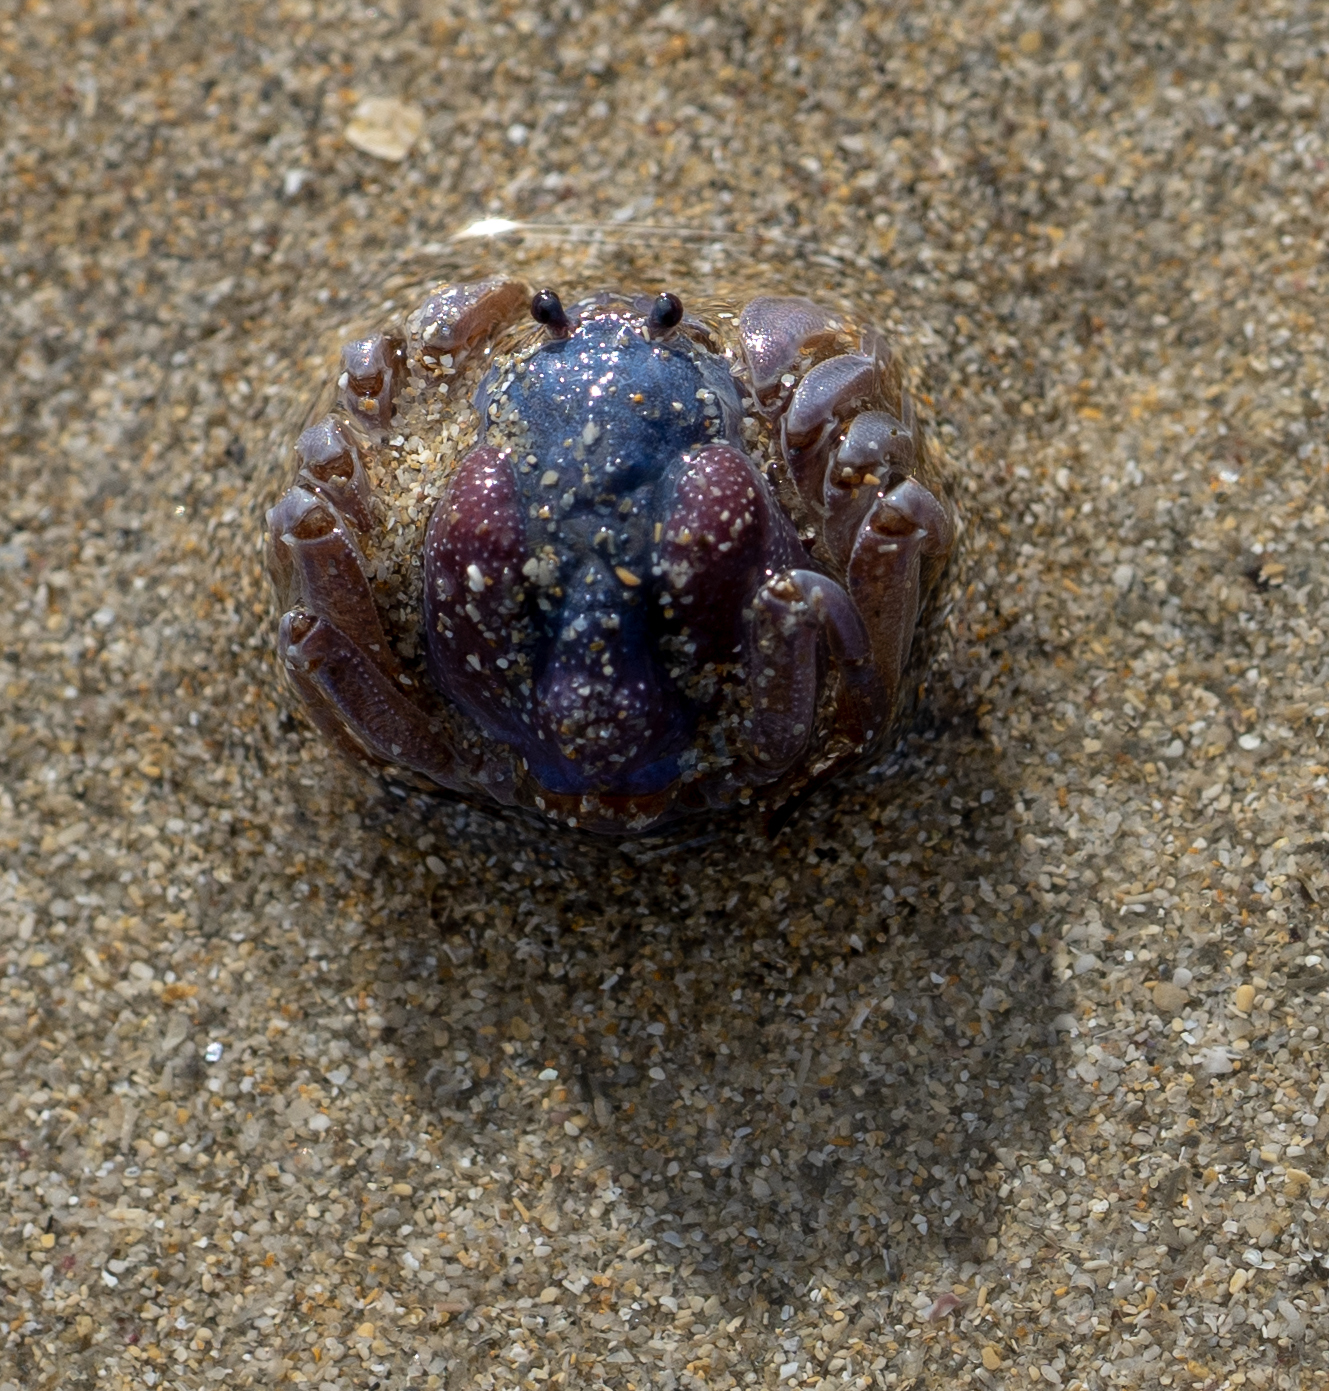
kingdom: Animalia
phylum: Arthropoda
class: Malacostraca
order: Decapoda
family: Mictyridae
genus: Mictyris
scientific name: Mictyris platycheles
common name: Dark blue soldier crab
